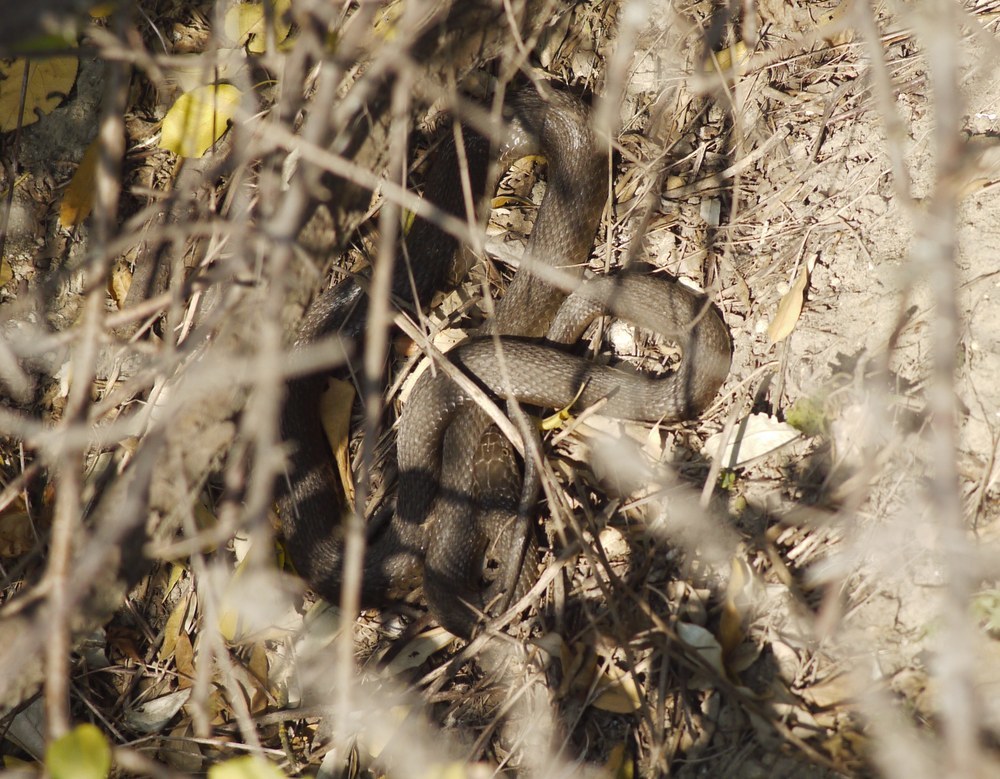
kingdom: Animalia
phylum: Chordata
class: Squamata
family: Colubridae
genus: Natrix
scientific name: Natrix tessellata
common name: Dice snake
